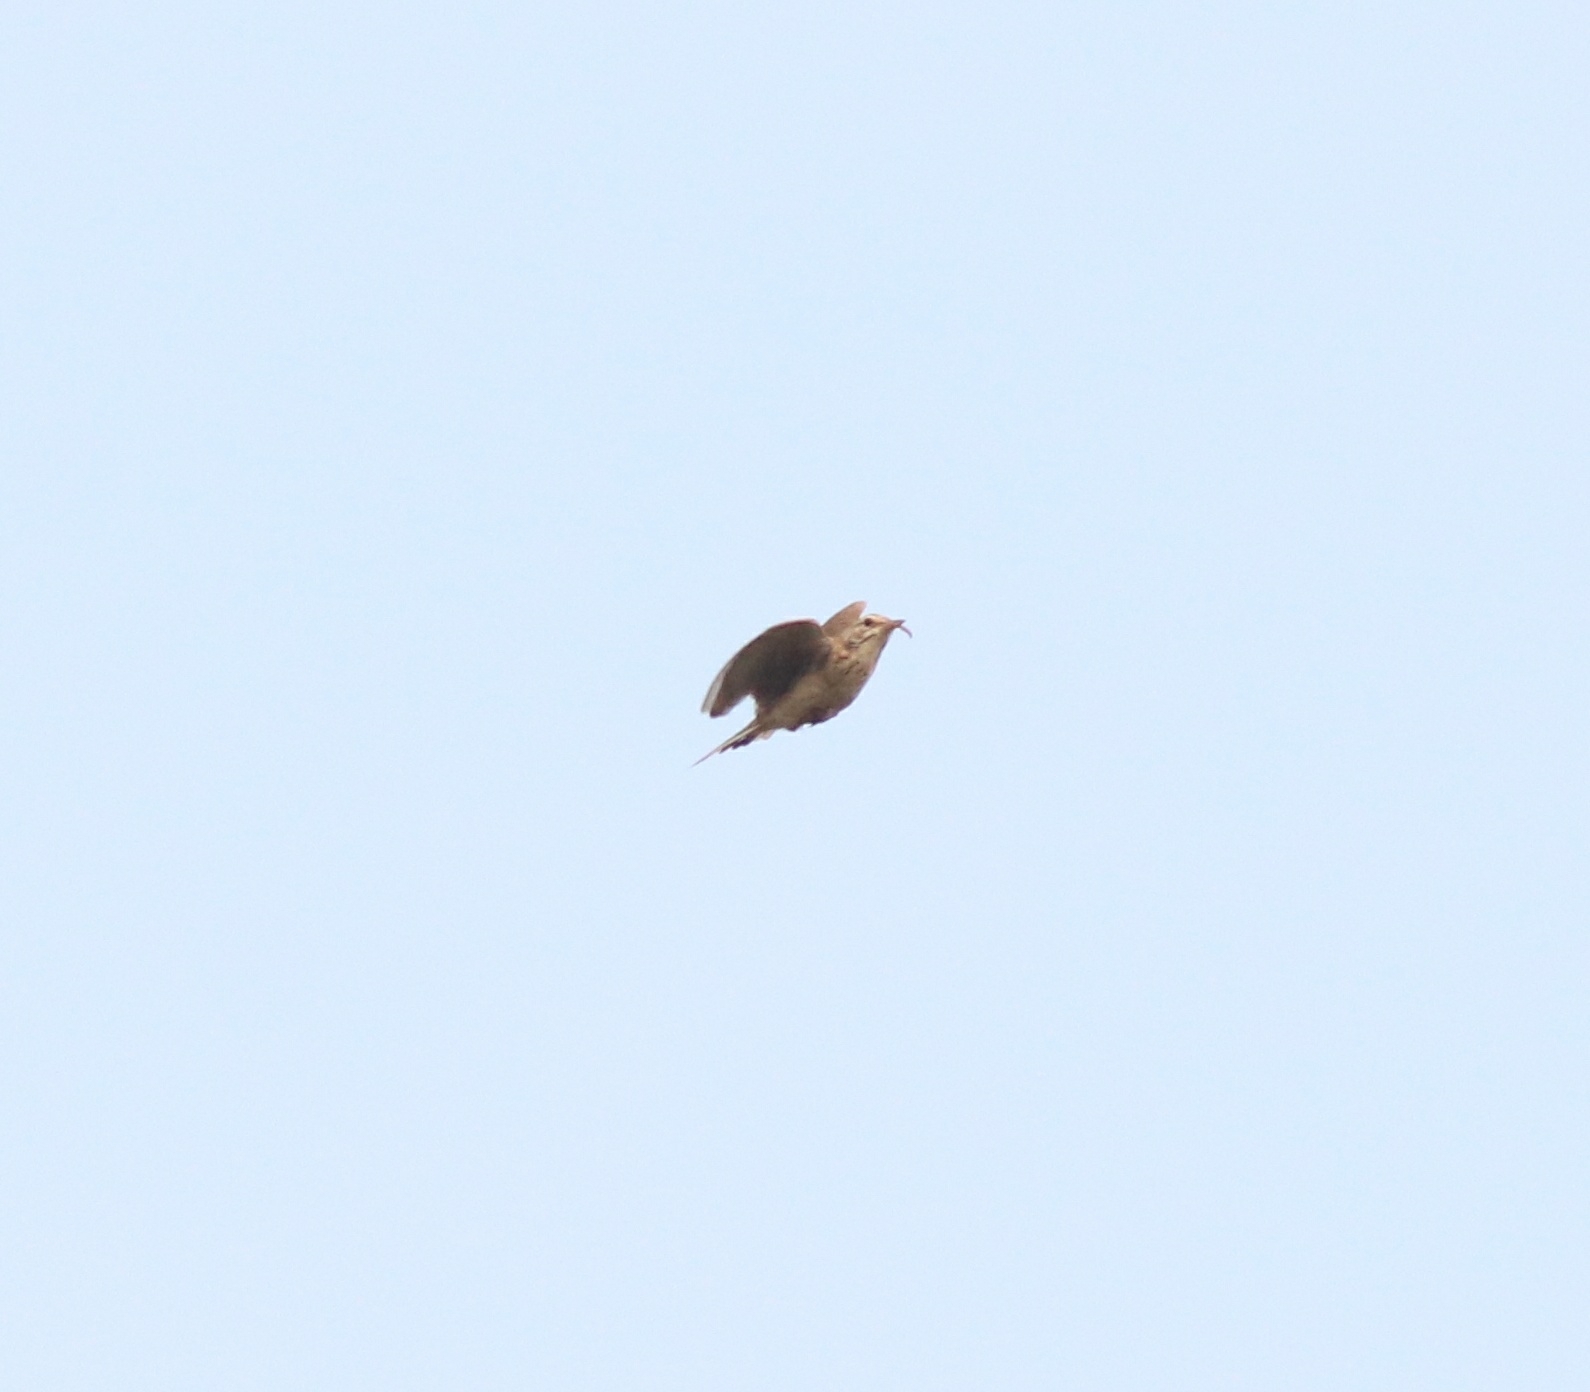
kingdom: Animalia
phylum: Chordata
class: Aves
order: Passeriformes
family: Motacillidae
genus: Anthus
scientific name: Anthus rufulus
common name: Paddyfield pipit
